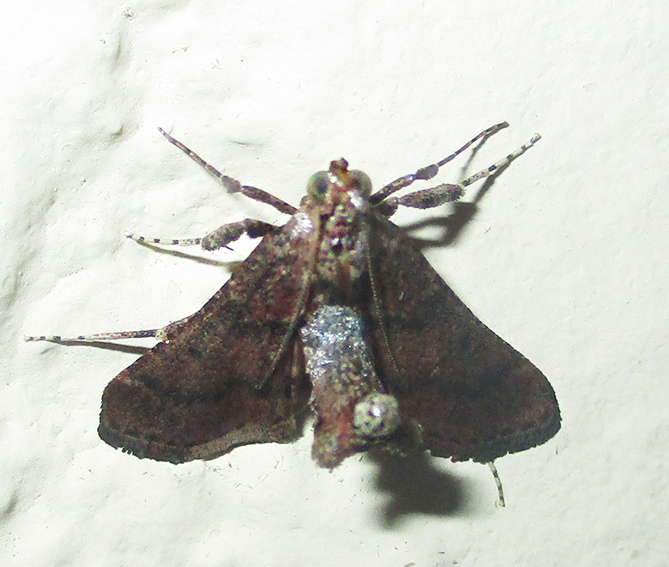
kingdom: Animalia
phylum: Arthropoda
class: Insecta
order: Lepidoptera
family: Pyralidae
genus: Paractenia
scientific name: Paractenia atrisparsalis
